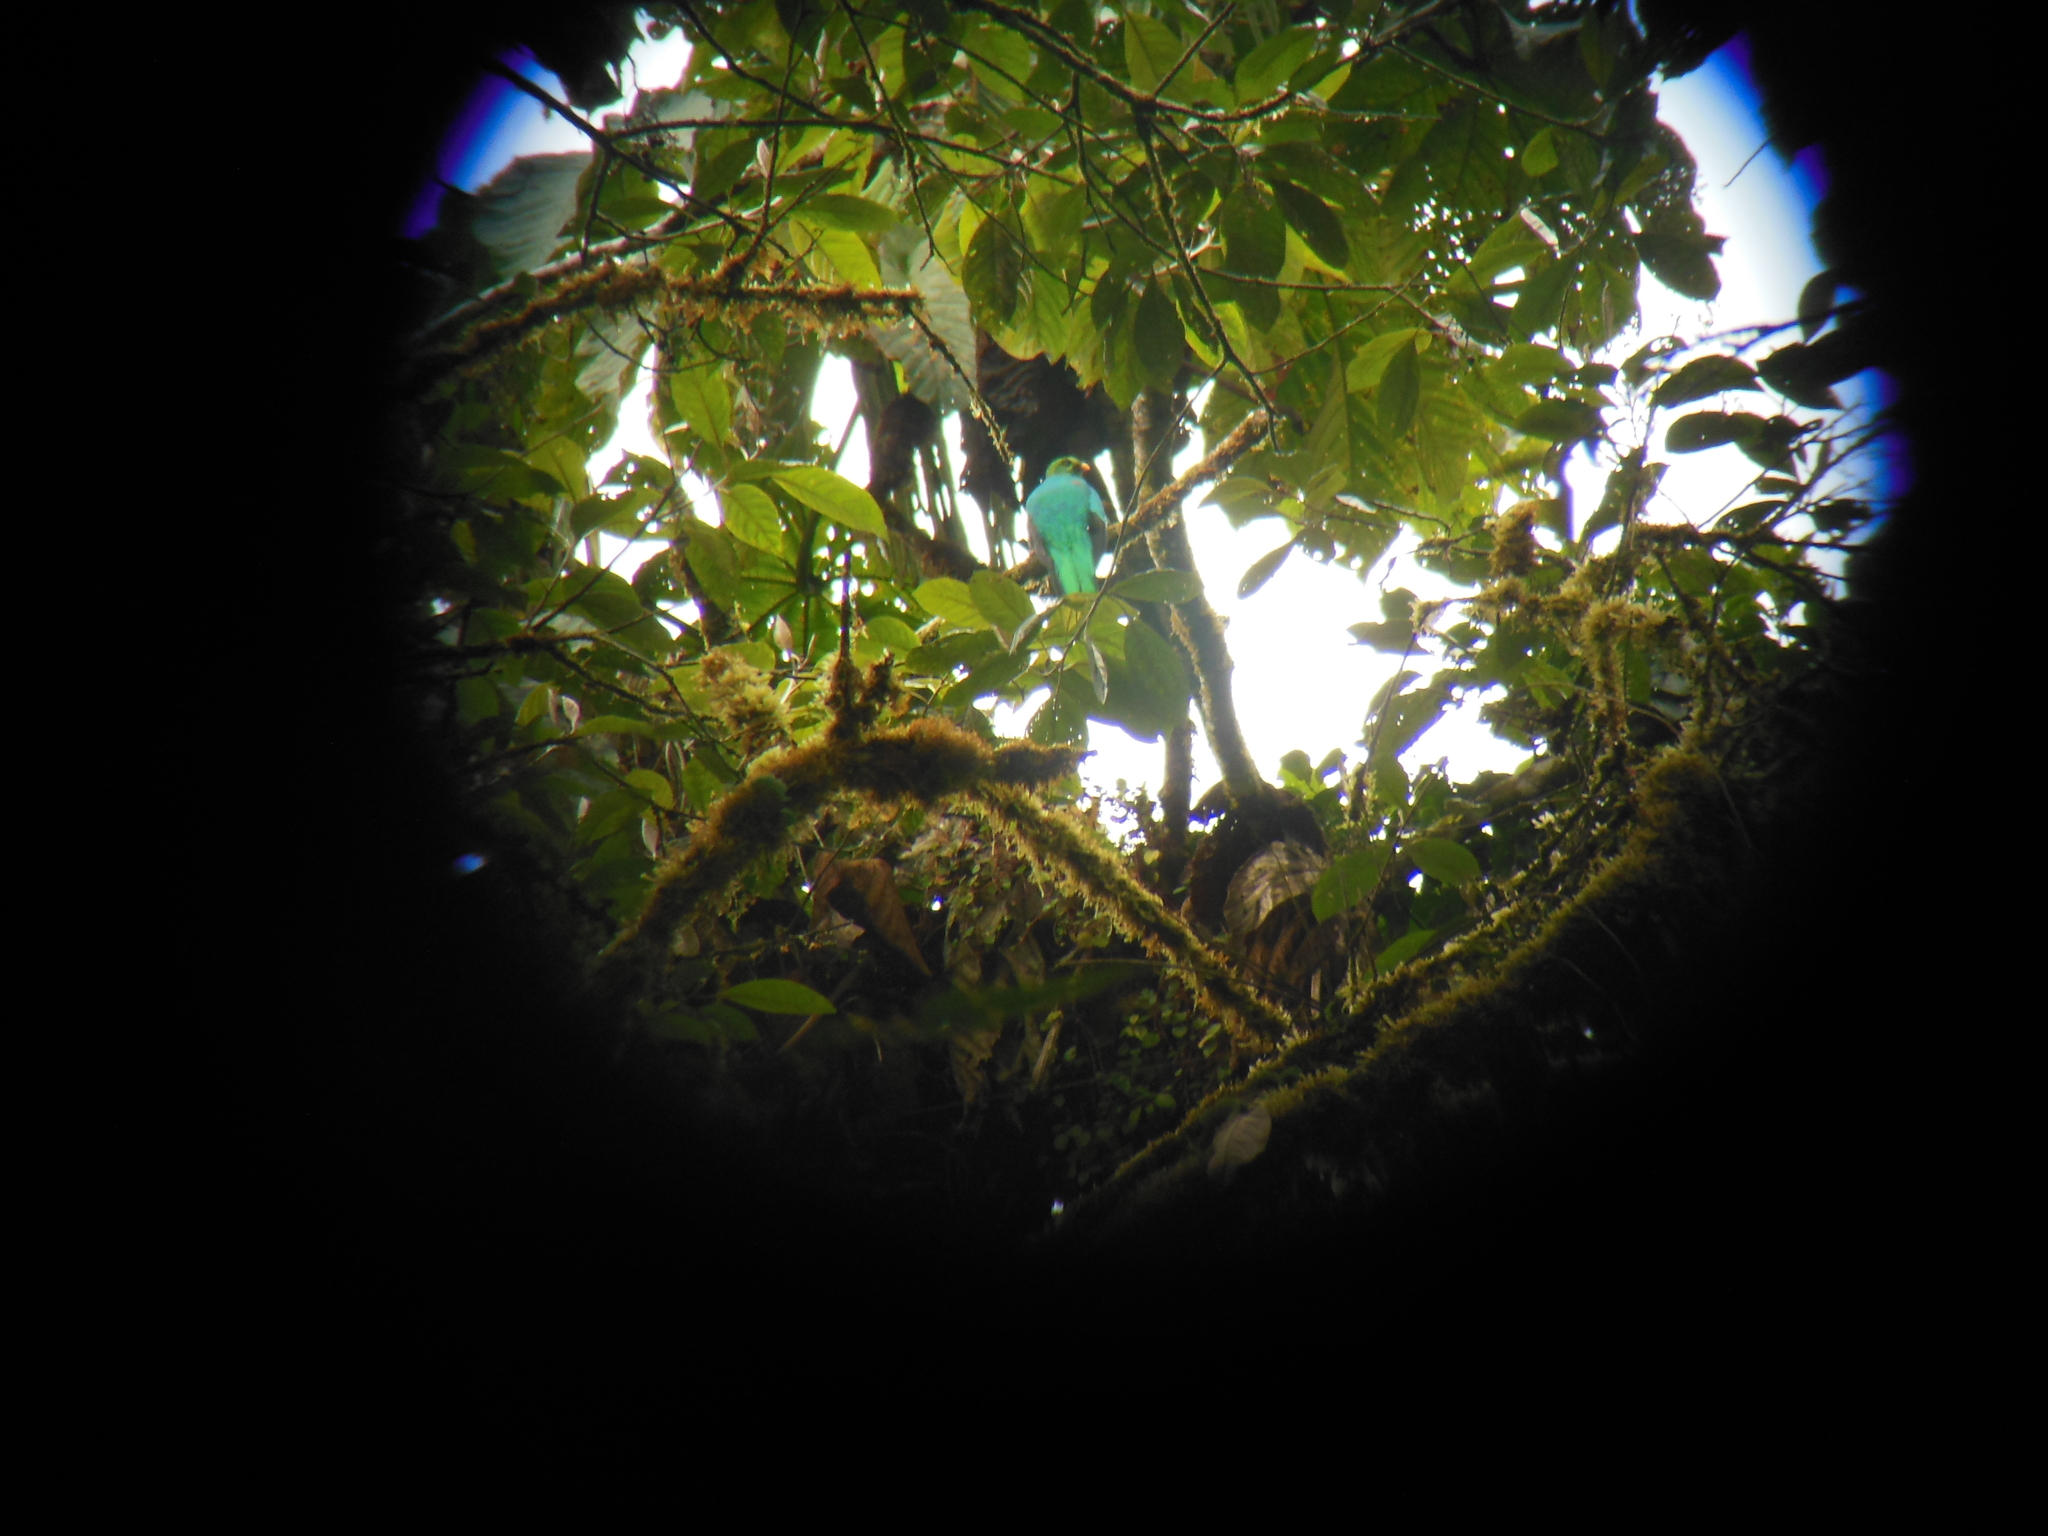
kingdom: Animalia
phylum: Chordata
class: Aves
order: Trogoniformes
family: Trogonidae
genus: Pharomachrus
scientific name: Pharomachrus auriceps
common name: Golden-headed quetzal
